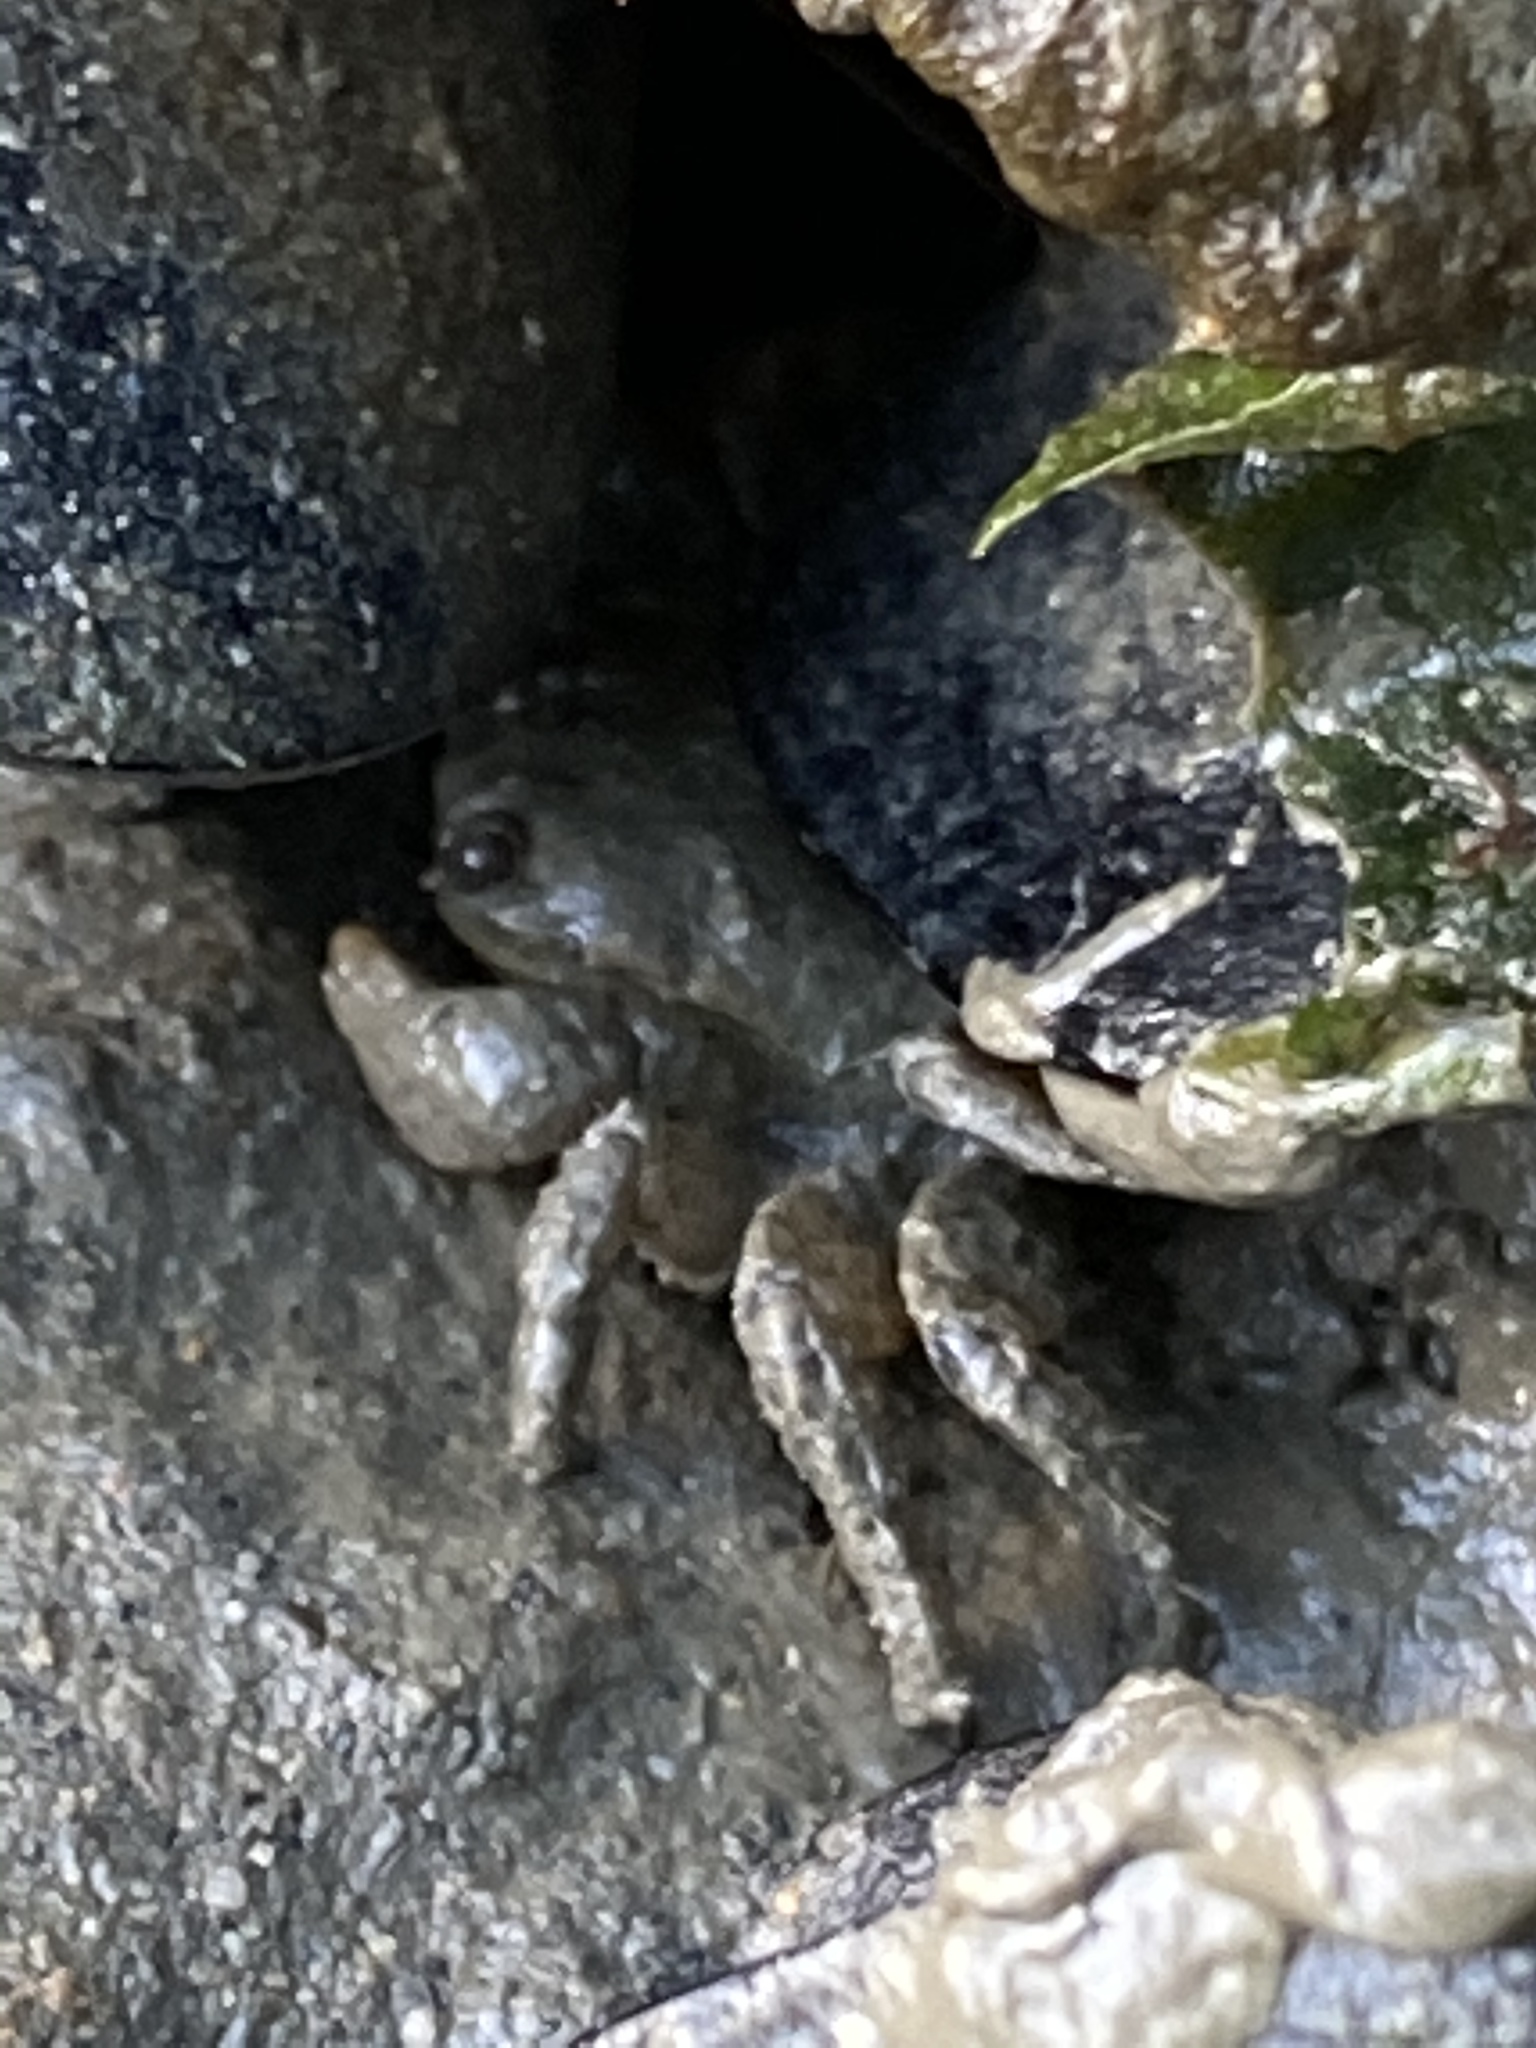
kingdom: Animalia
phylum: Arthropoda
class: Malacostraca
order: Decapoda
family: Varunidae
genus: Hemigrapsus
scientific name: Hemigrapsus oregonensis
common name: Yellow shore crab
